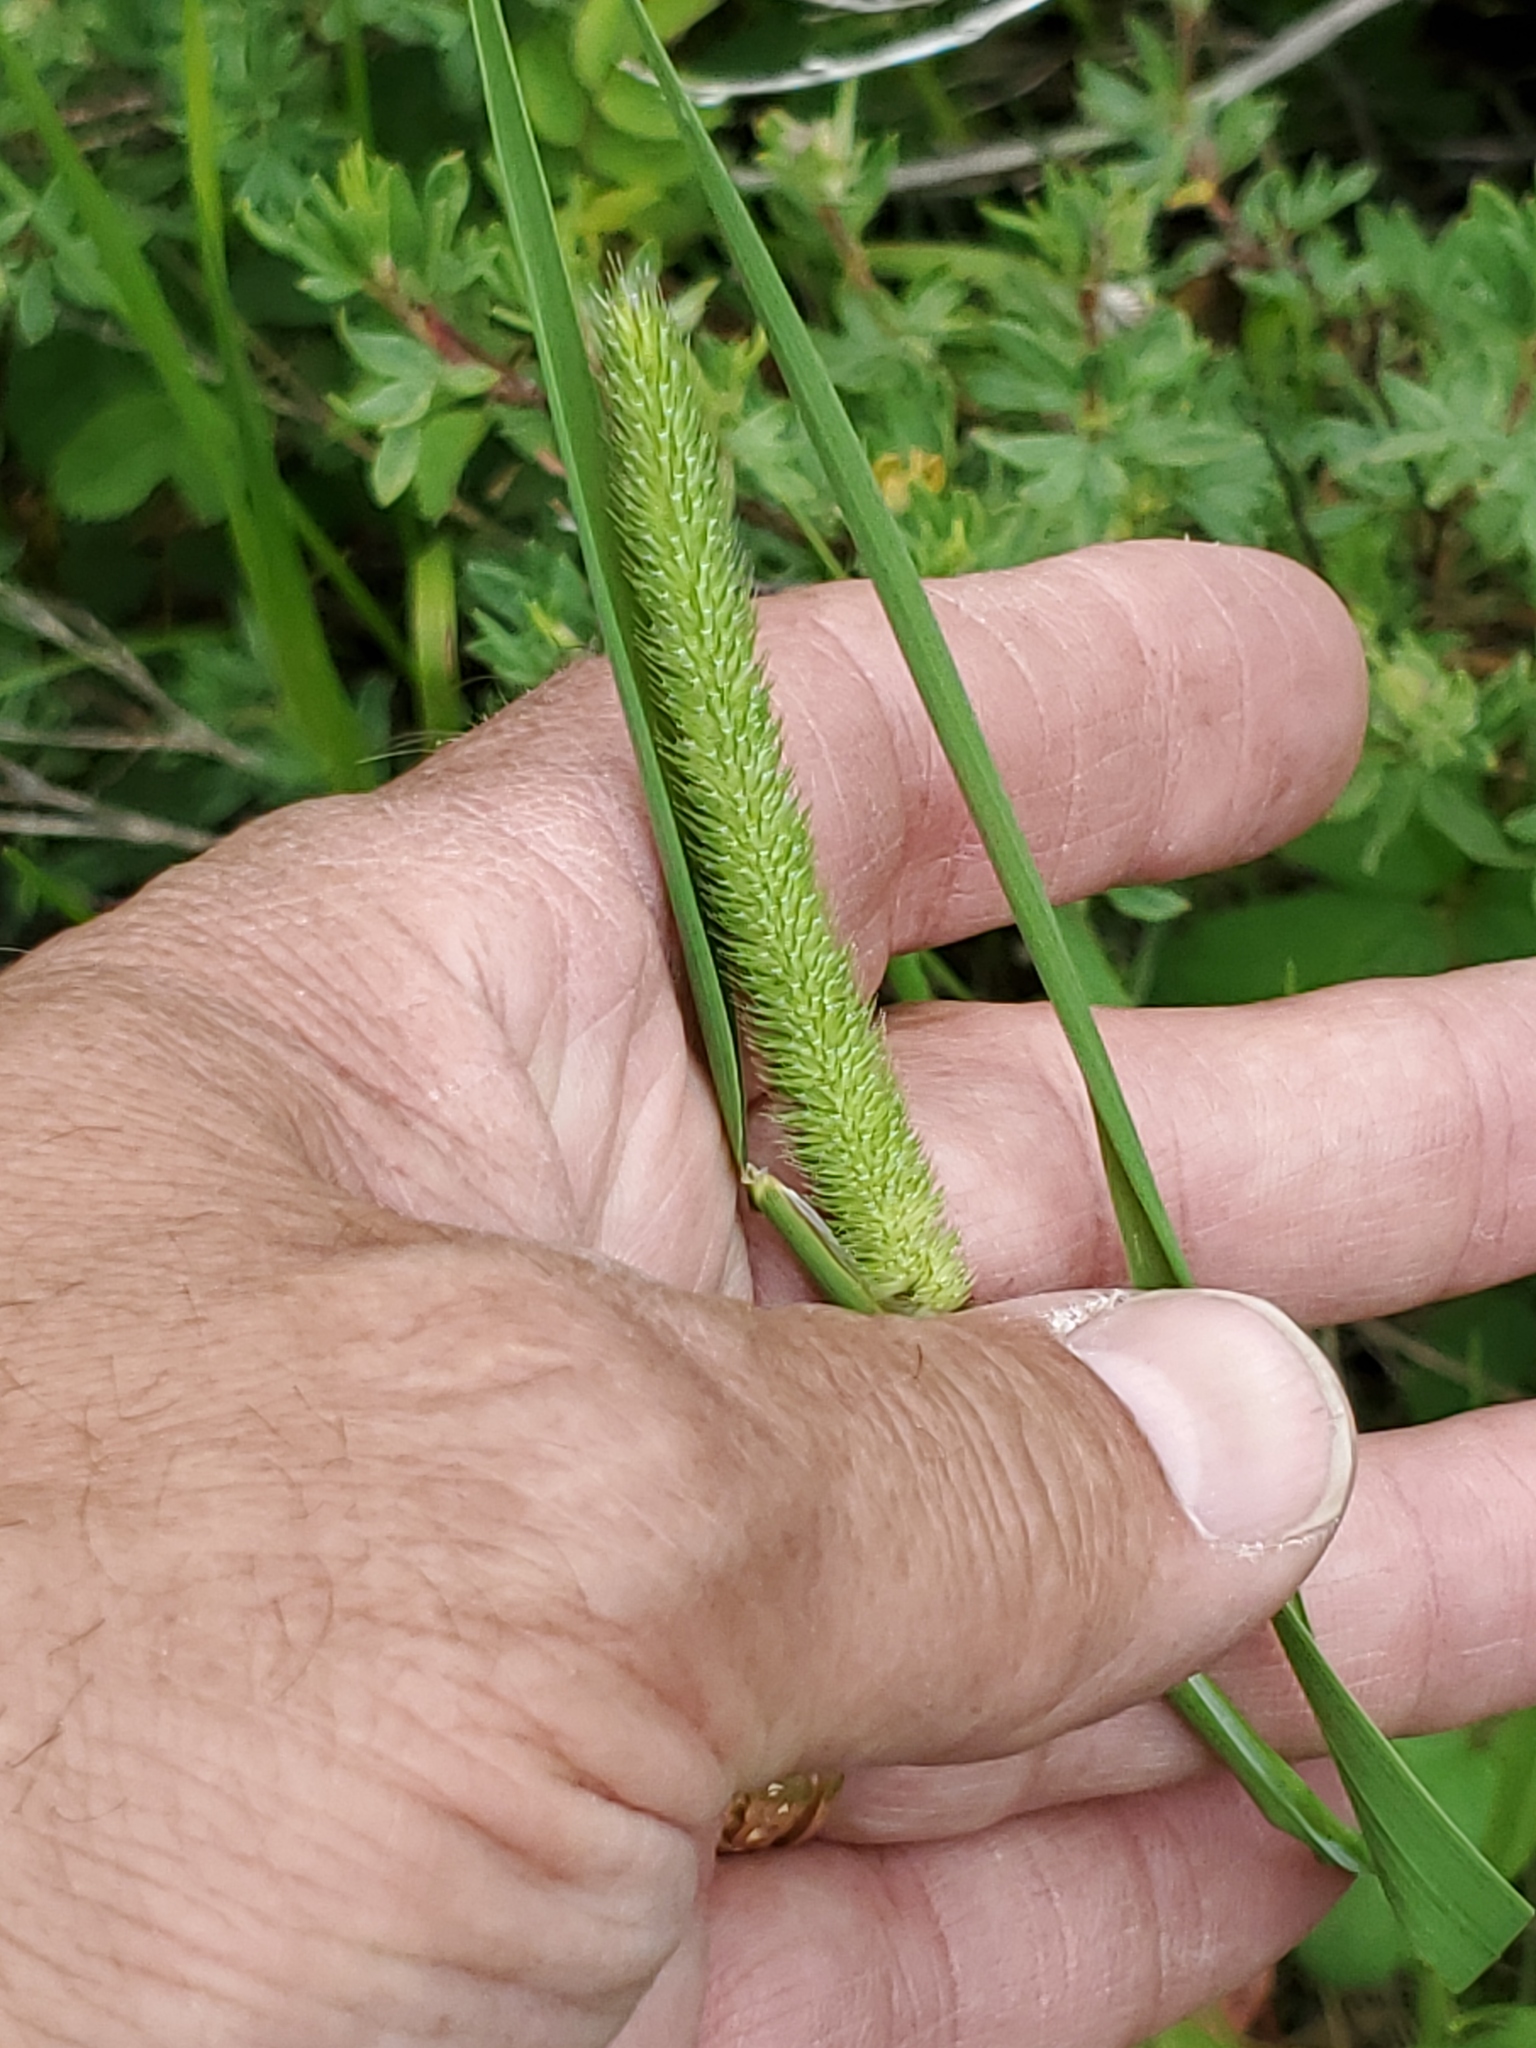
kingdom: Plantae
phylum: Tracheophyta
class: Liliopsida
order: Poales
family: Poaceae
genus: Phleum
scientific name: Phleum pratense
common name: Timothy grass
